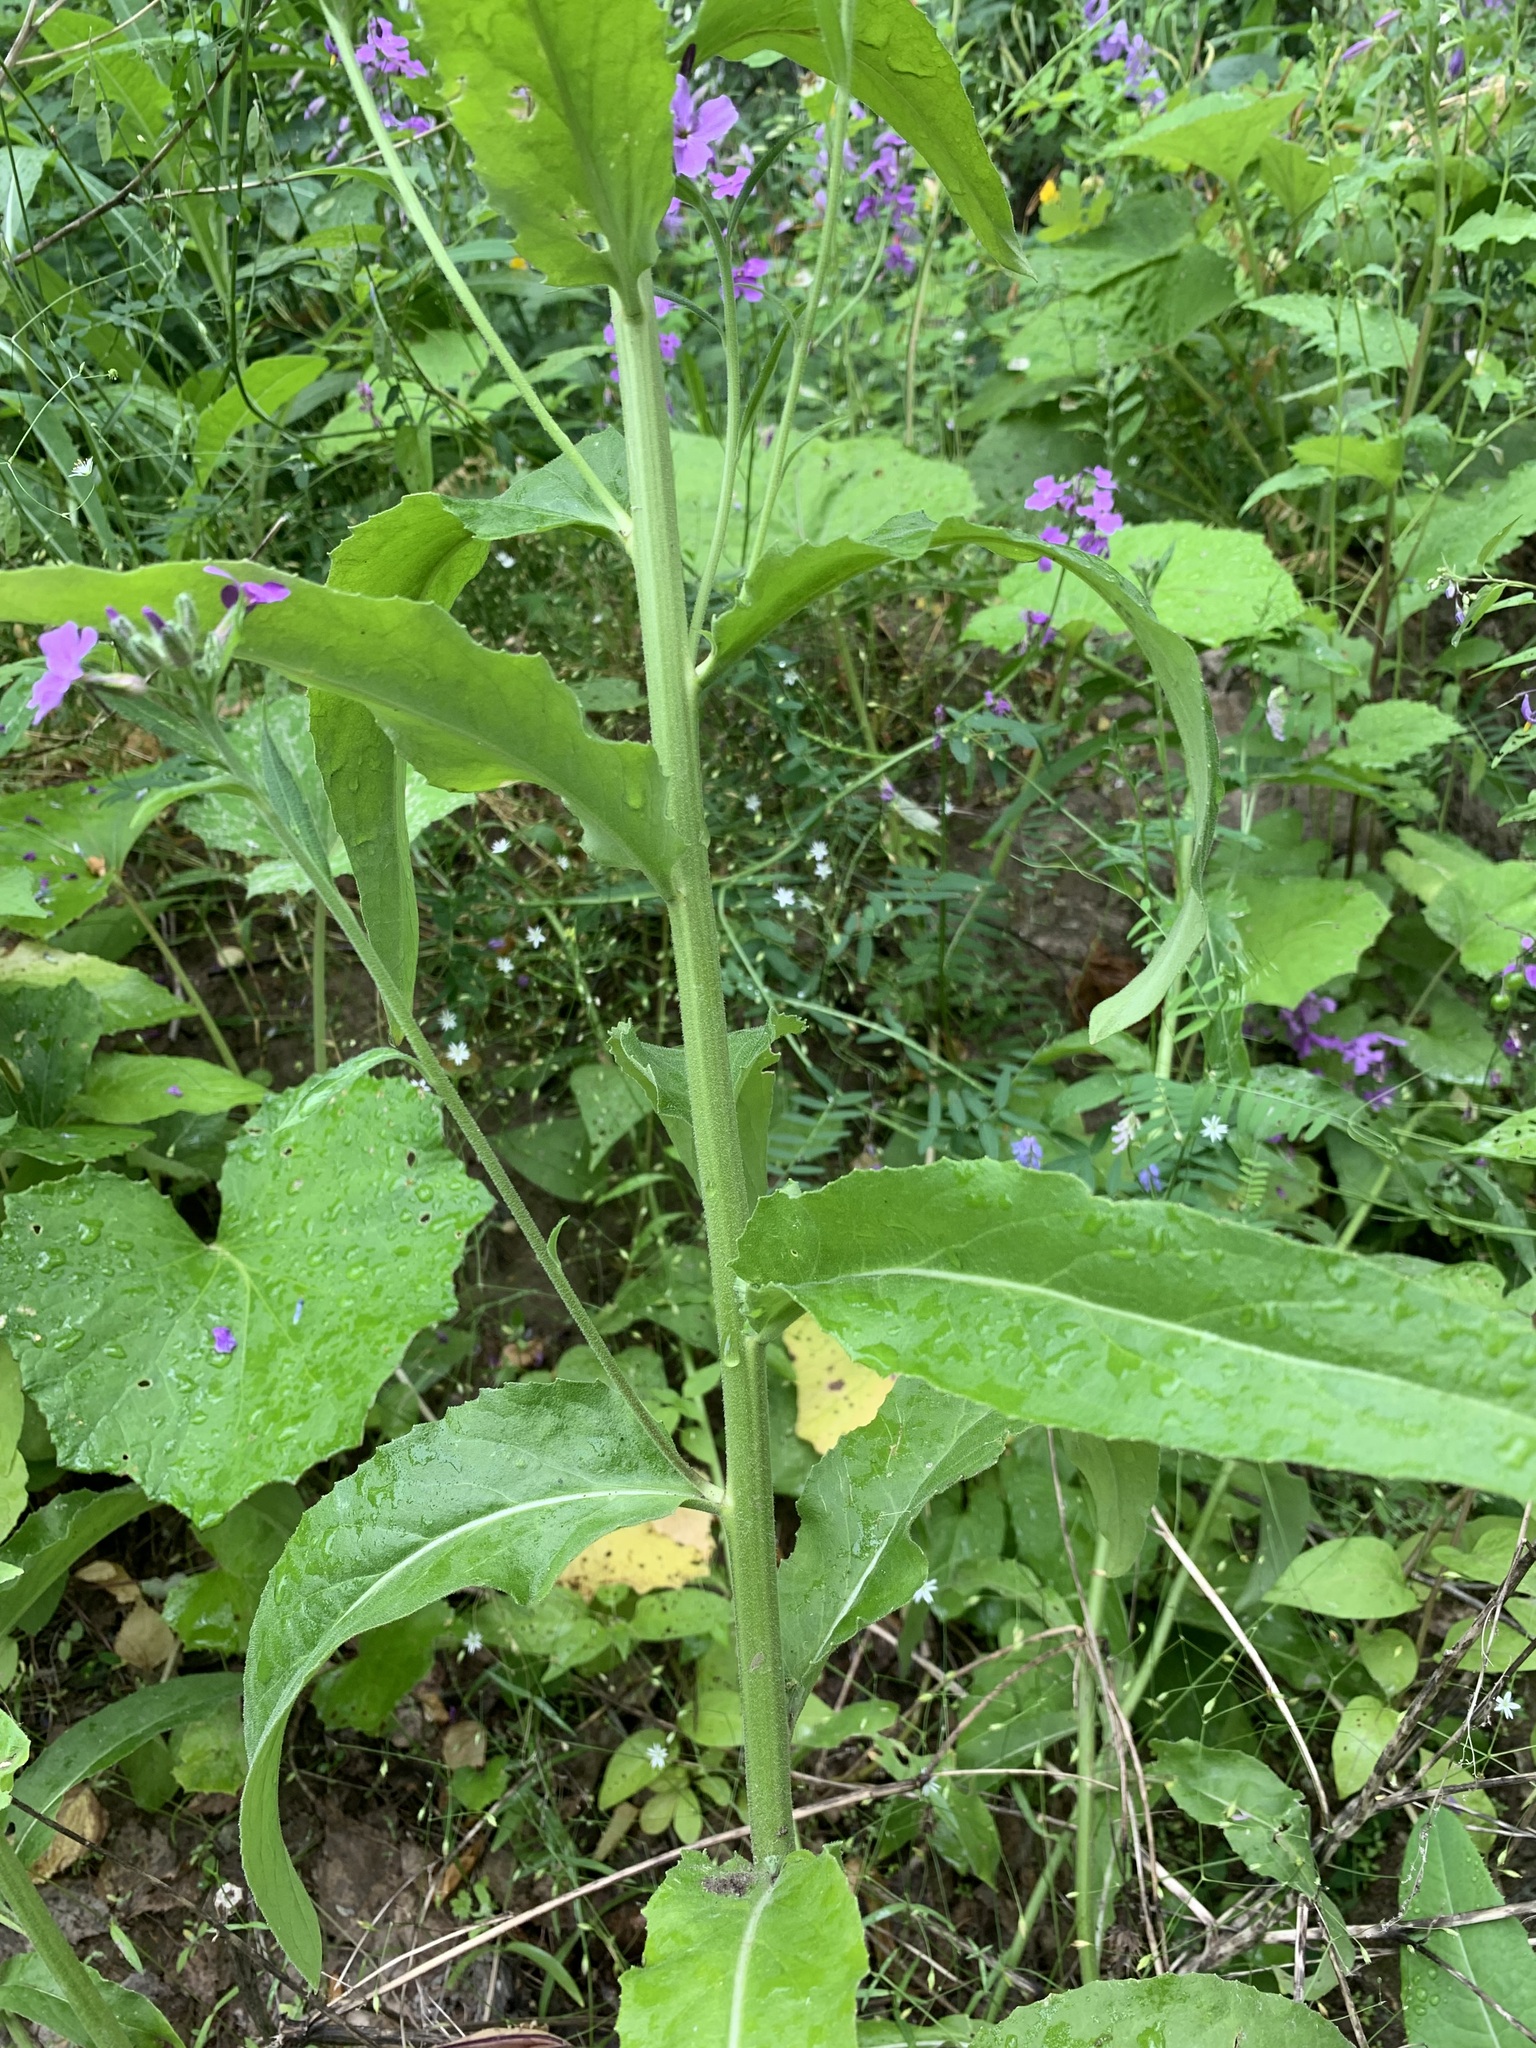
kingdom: Plantae
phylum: Tracheophyta
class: Magnoliopsida
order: Brassicales
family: Brassicaceae
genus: Hesperis
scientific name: Hesperis matronalis
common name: Dame's-violet
